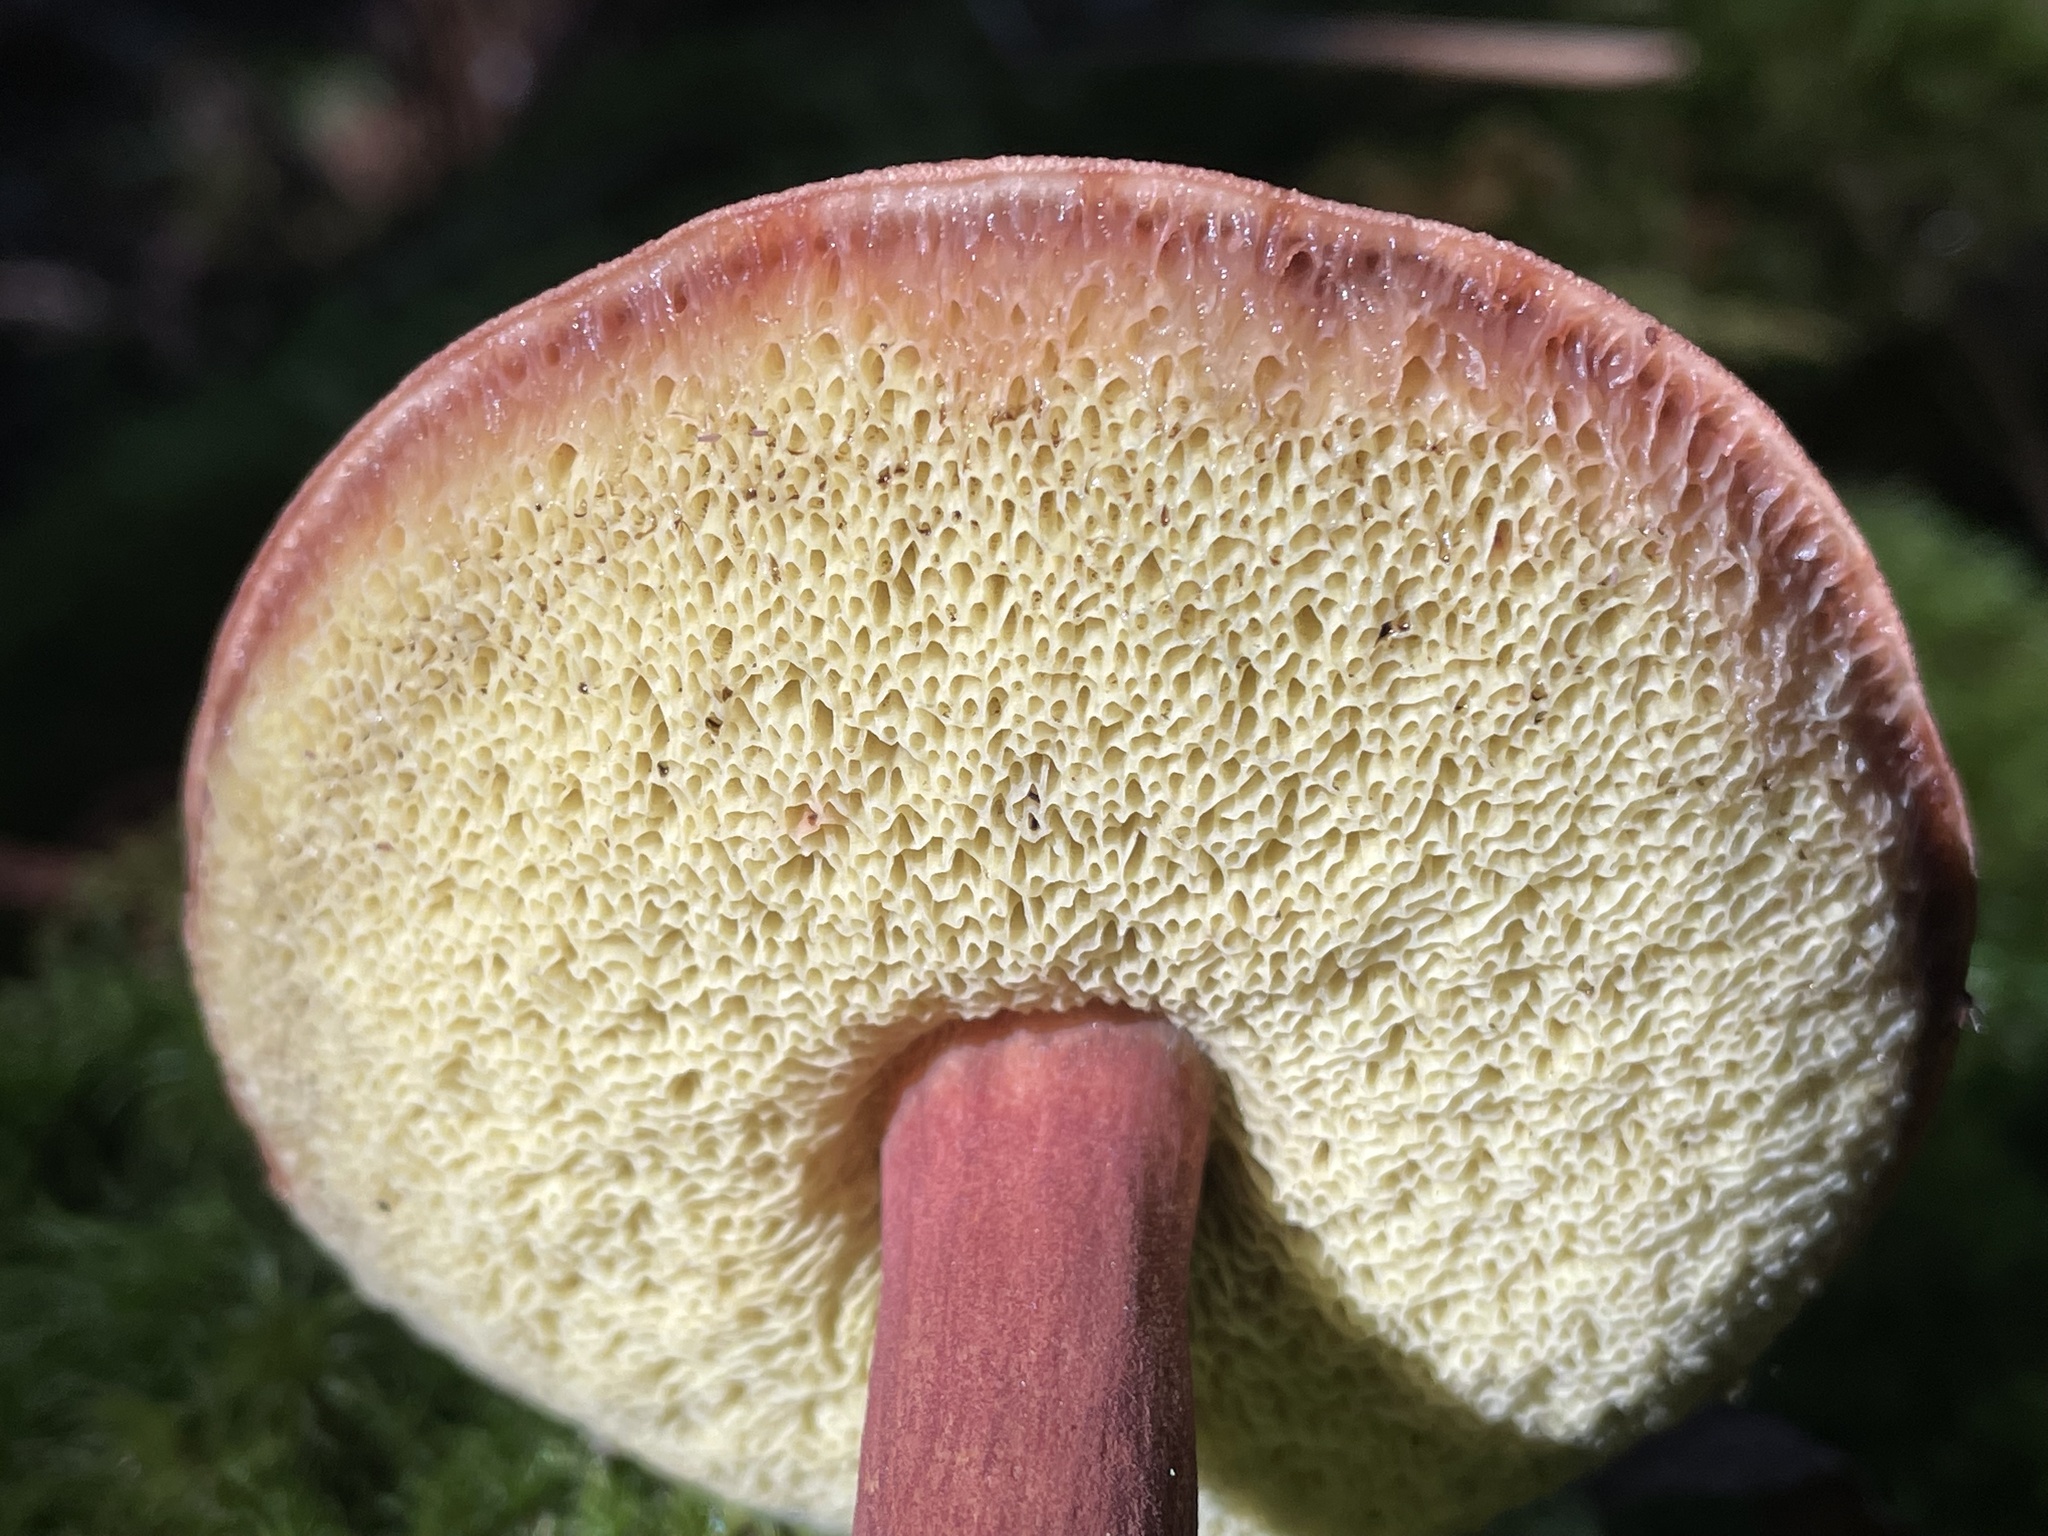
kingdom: Fungi
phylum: Basidiomycota
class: Agaricomycetes
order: Boletales
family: Boletaceae
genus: Imleria
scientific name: Imleria badia
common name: Bay bolete
